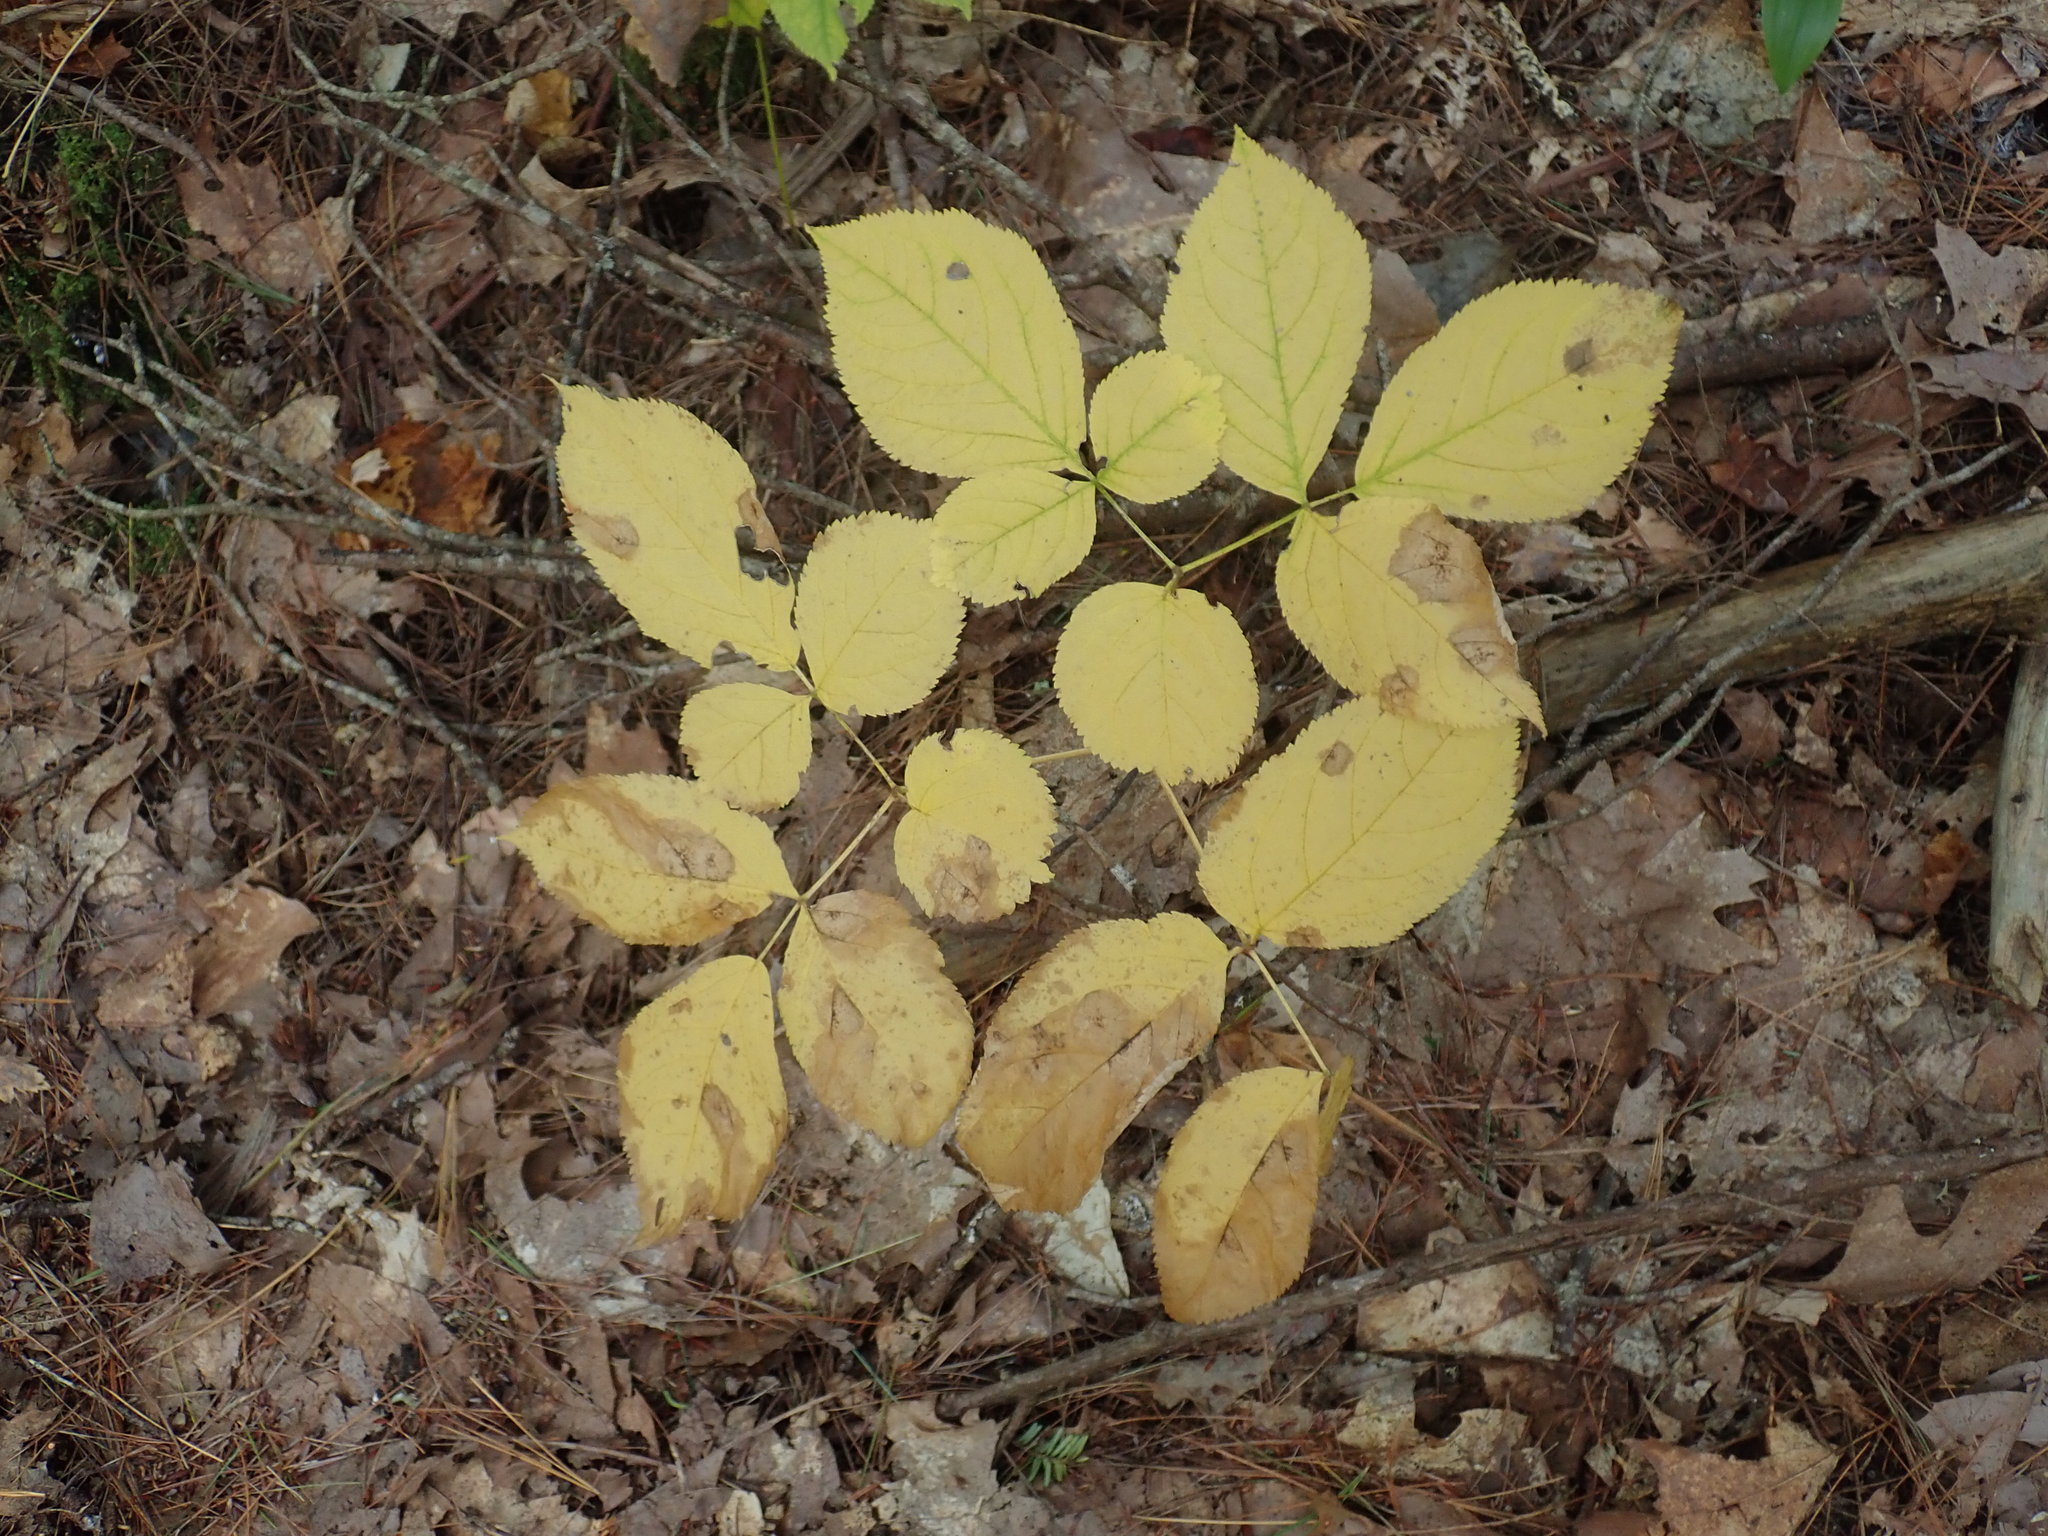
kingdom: Plantae
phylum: Tracheophyta
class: Magnoliopsida
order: Apiales
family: Araliaceae
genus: Aralia
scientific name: Aralia nudicaulis
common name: Wild sarsaparilla
